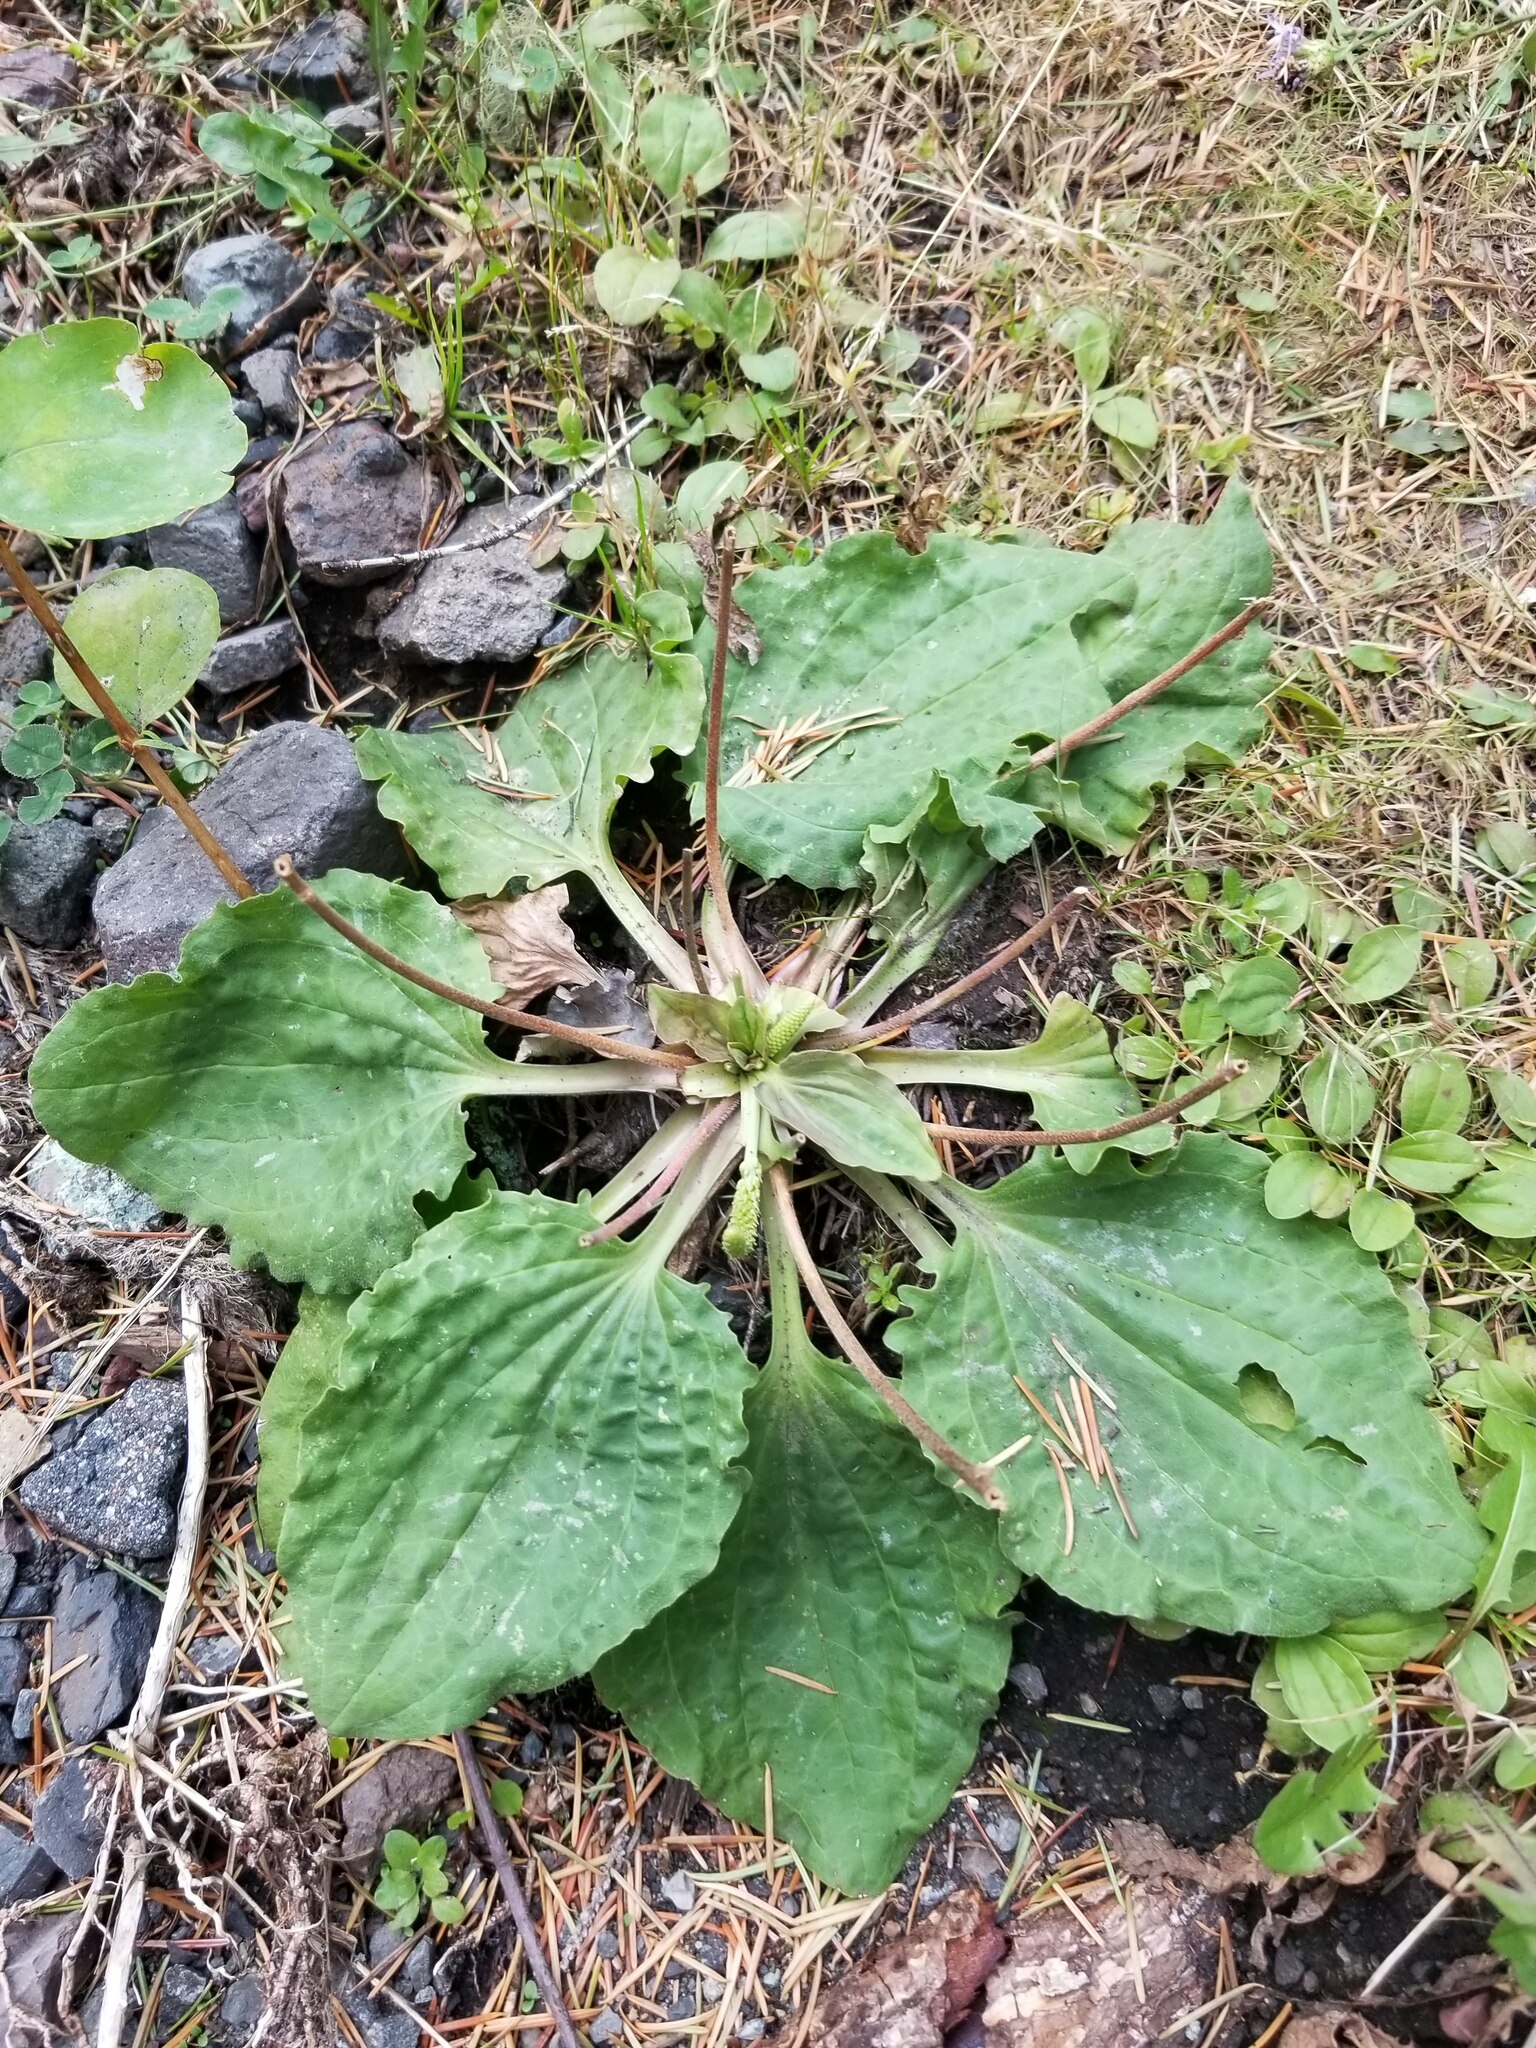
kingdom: Plantae
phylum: Tracheophyta
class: Magnoliopsida
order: Lamiales
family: Plantaginaceae
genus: Plantago
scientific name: Plantago major
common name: Common plantain
